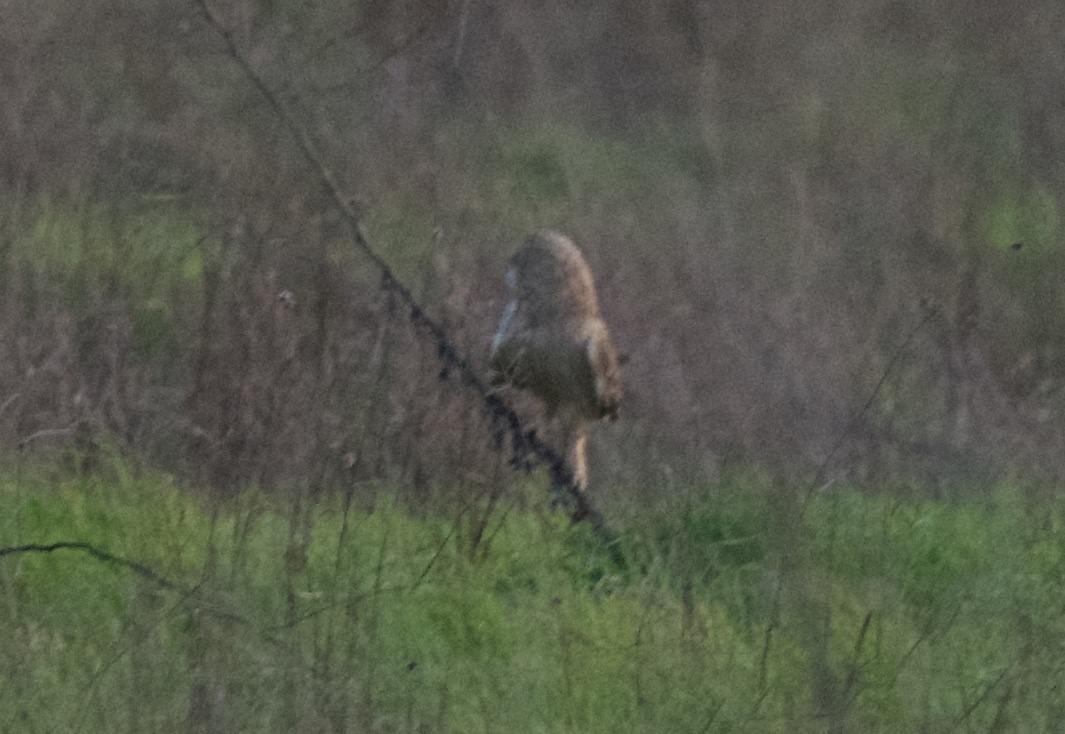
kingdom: Animalia
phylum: Chordata
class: Aves
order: Strigiformes
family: Strigidae
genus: Asio
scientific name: Asio flammeus
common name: Short-eared owl
